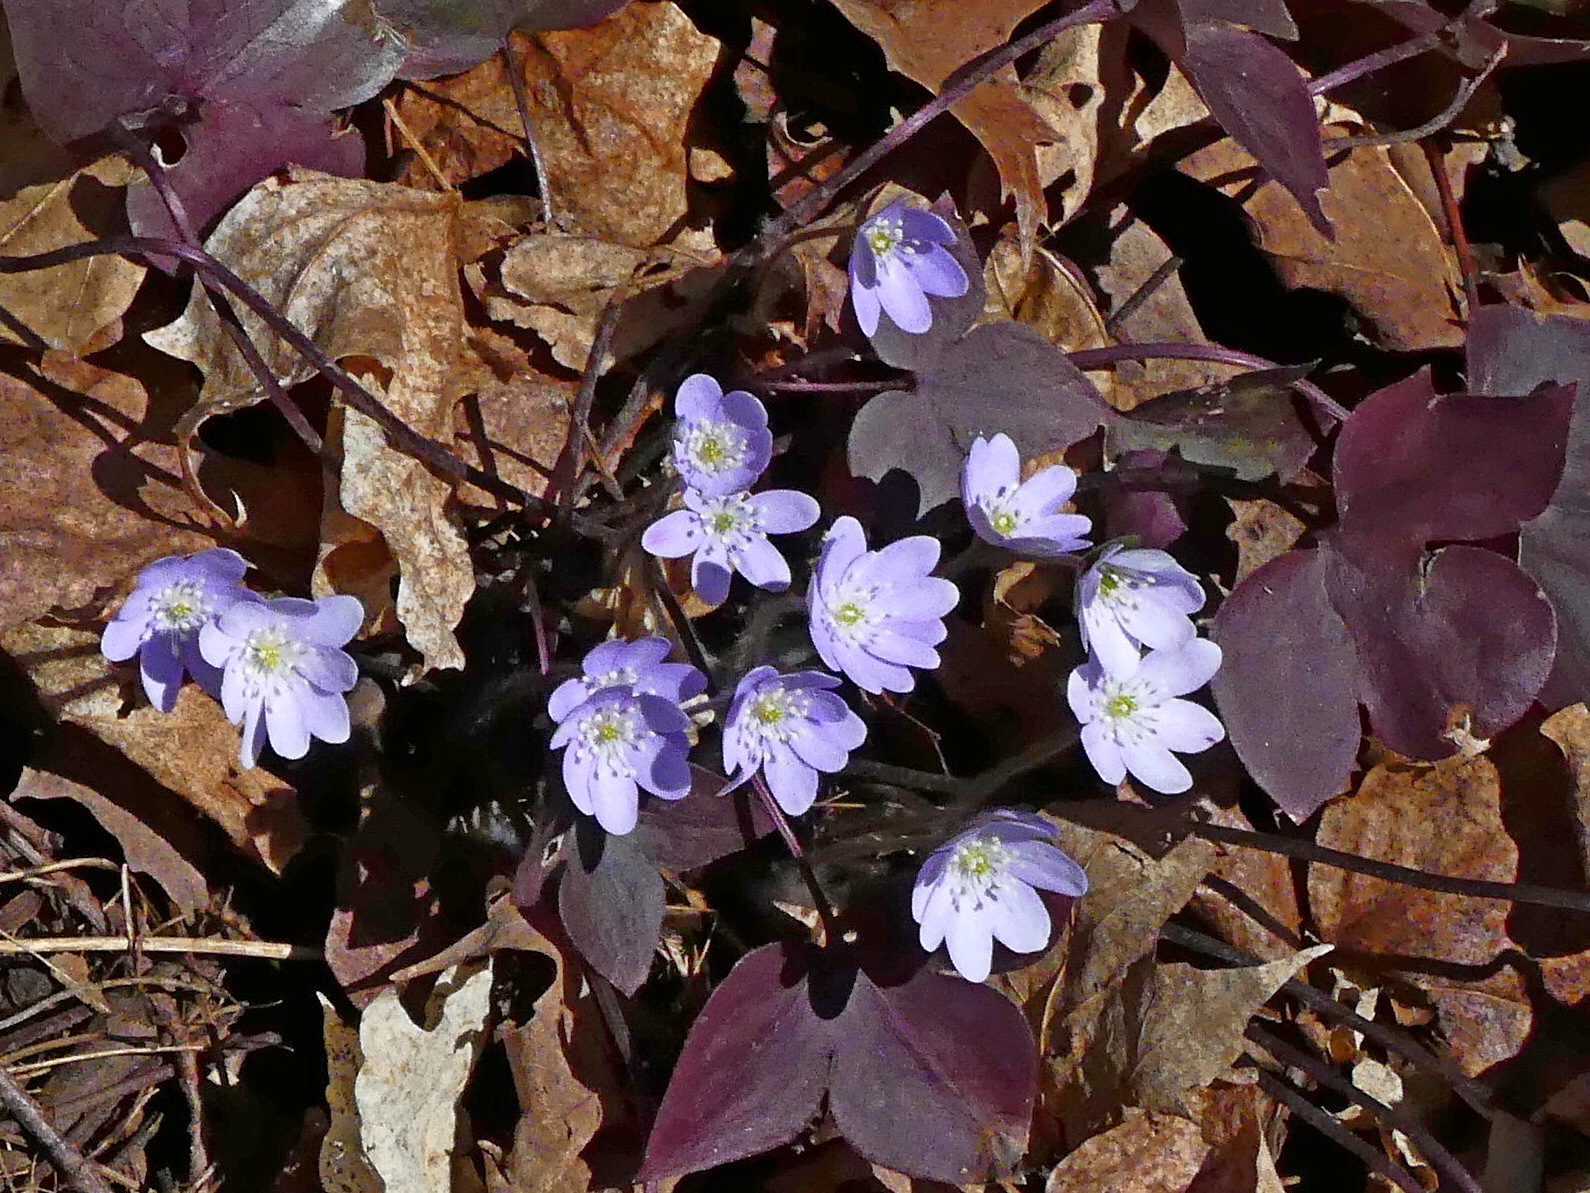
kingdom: Plantae
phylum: Tracheophyta
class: Magnoliopsida
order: Ranunculales
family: Ranunculaceae
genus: Hepatica
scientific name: Hepatica acutiloba
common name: Sharp-lobed hepatica
